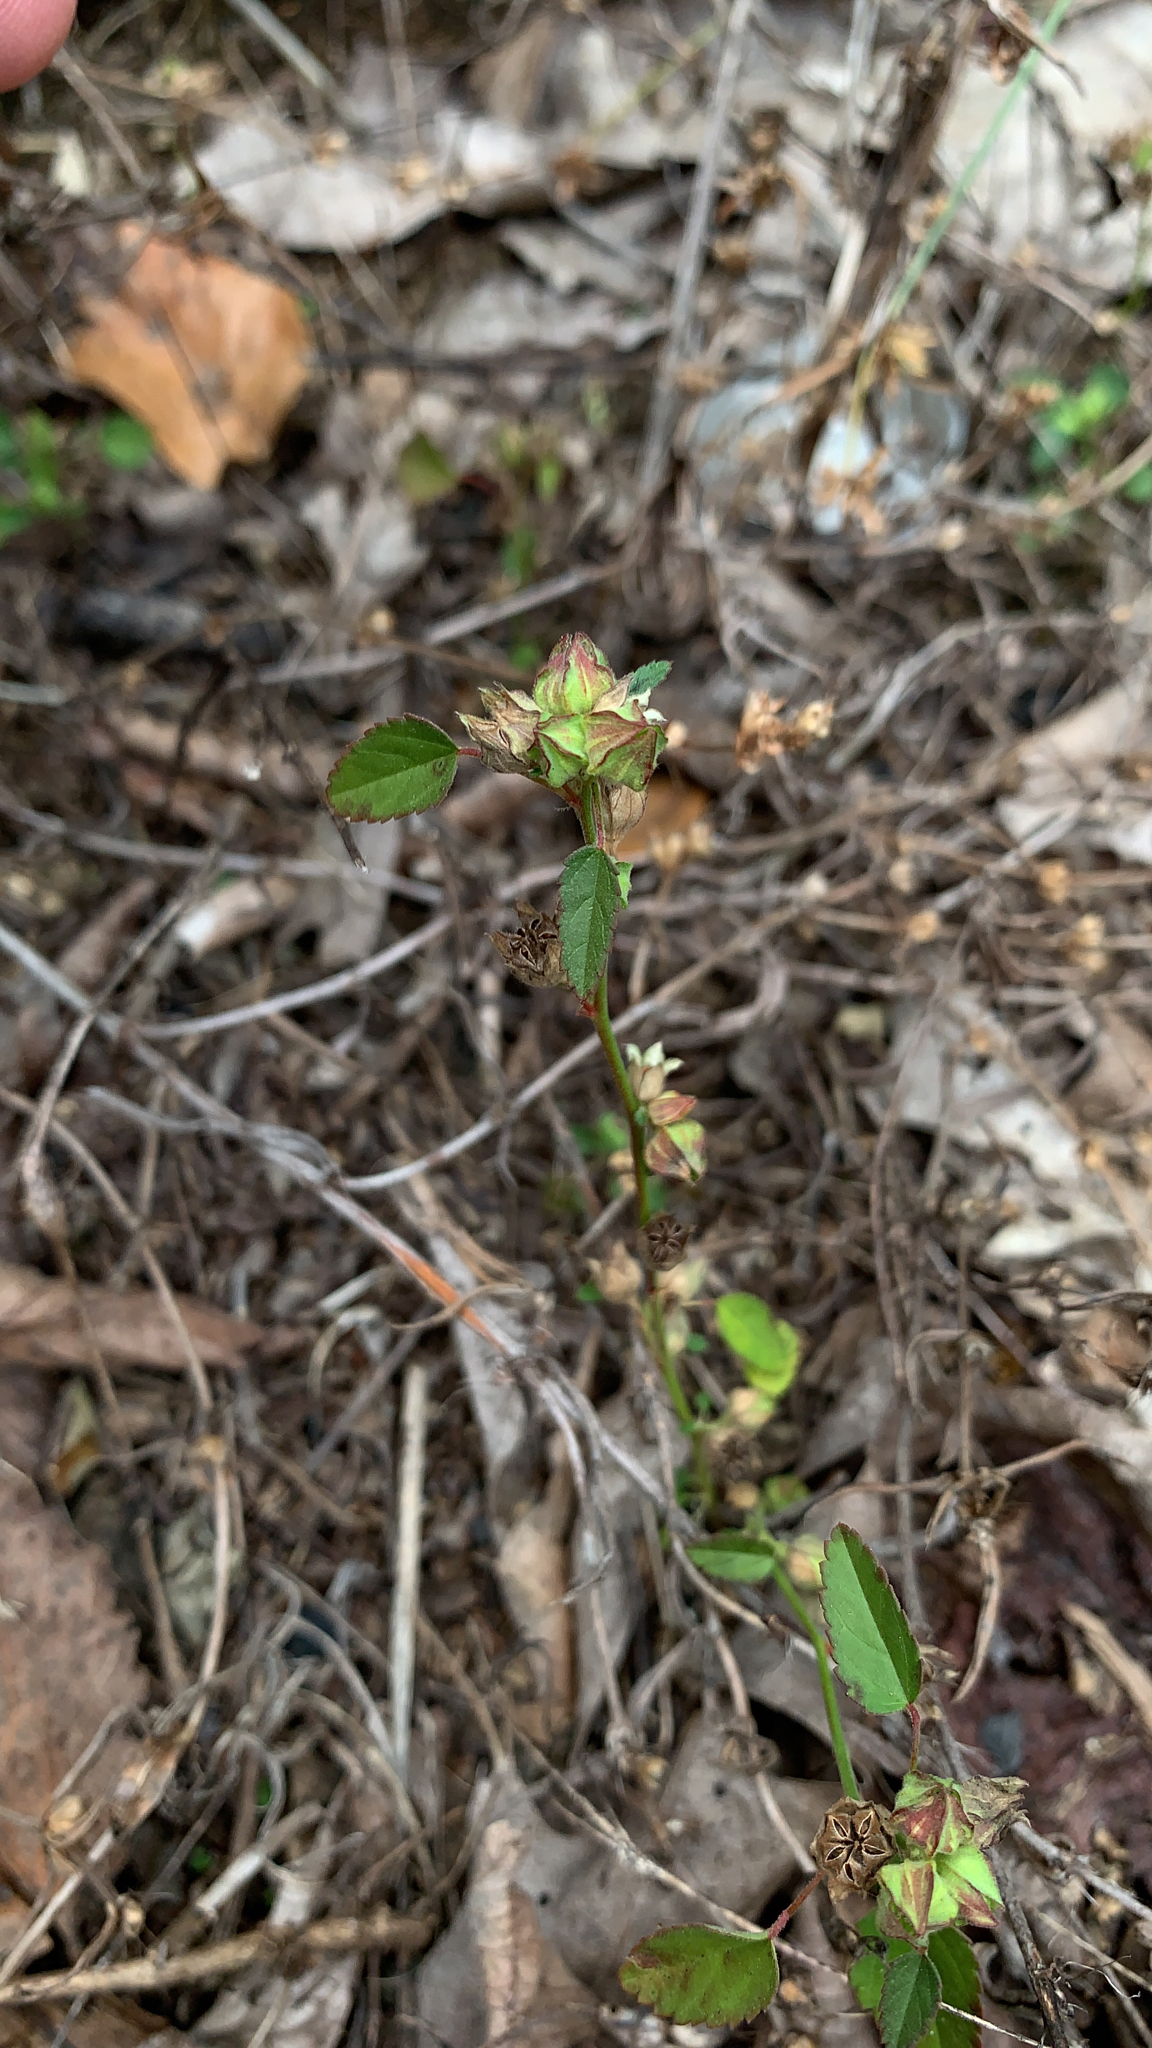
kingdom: Plantae
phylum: Tracheophyta
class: Magnoliopsida
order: Malvales
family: Malvaceae
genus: Sida
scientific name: Sida spinosa
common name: Prickly fanpetals
